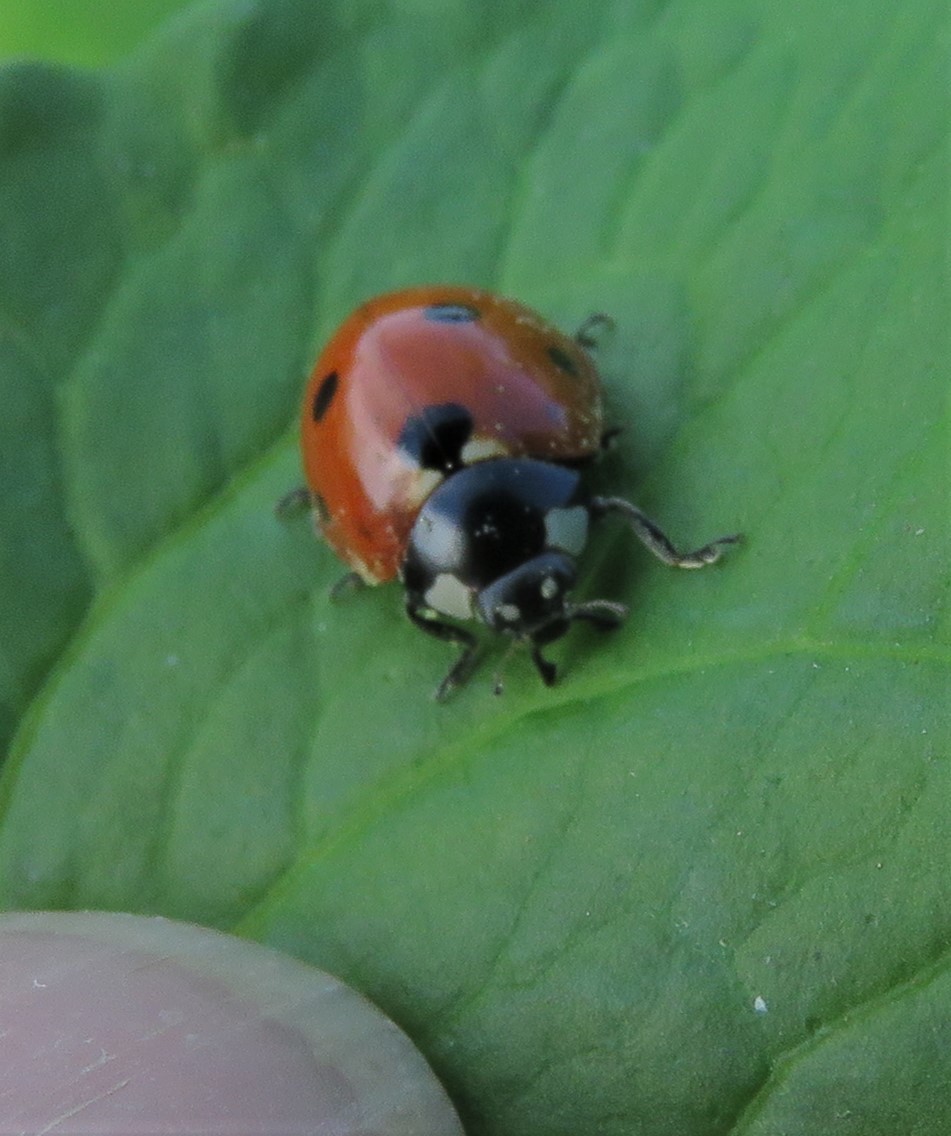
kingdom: Animalia
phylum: Arthropoda
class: Insecta
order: Coleoptera
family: Coccinellidae
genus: Coccinella
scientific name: Coccinella septempunctata
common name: Sevenspotted lady beetle
